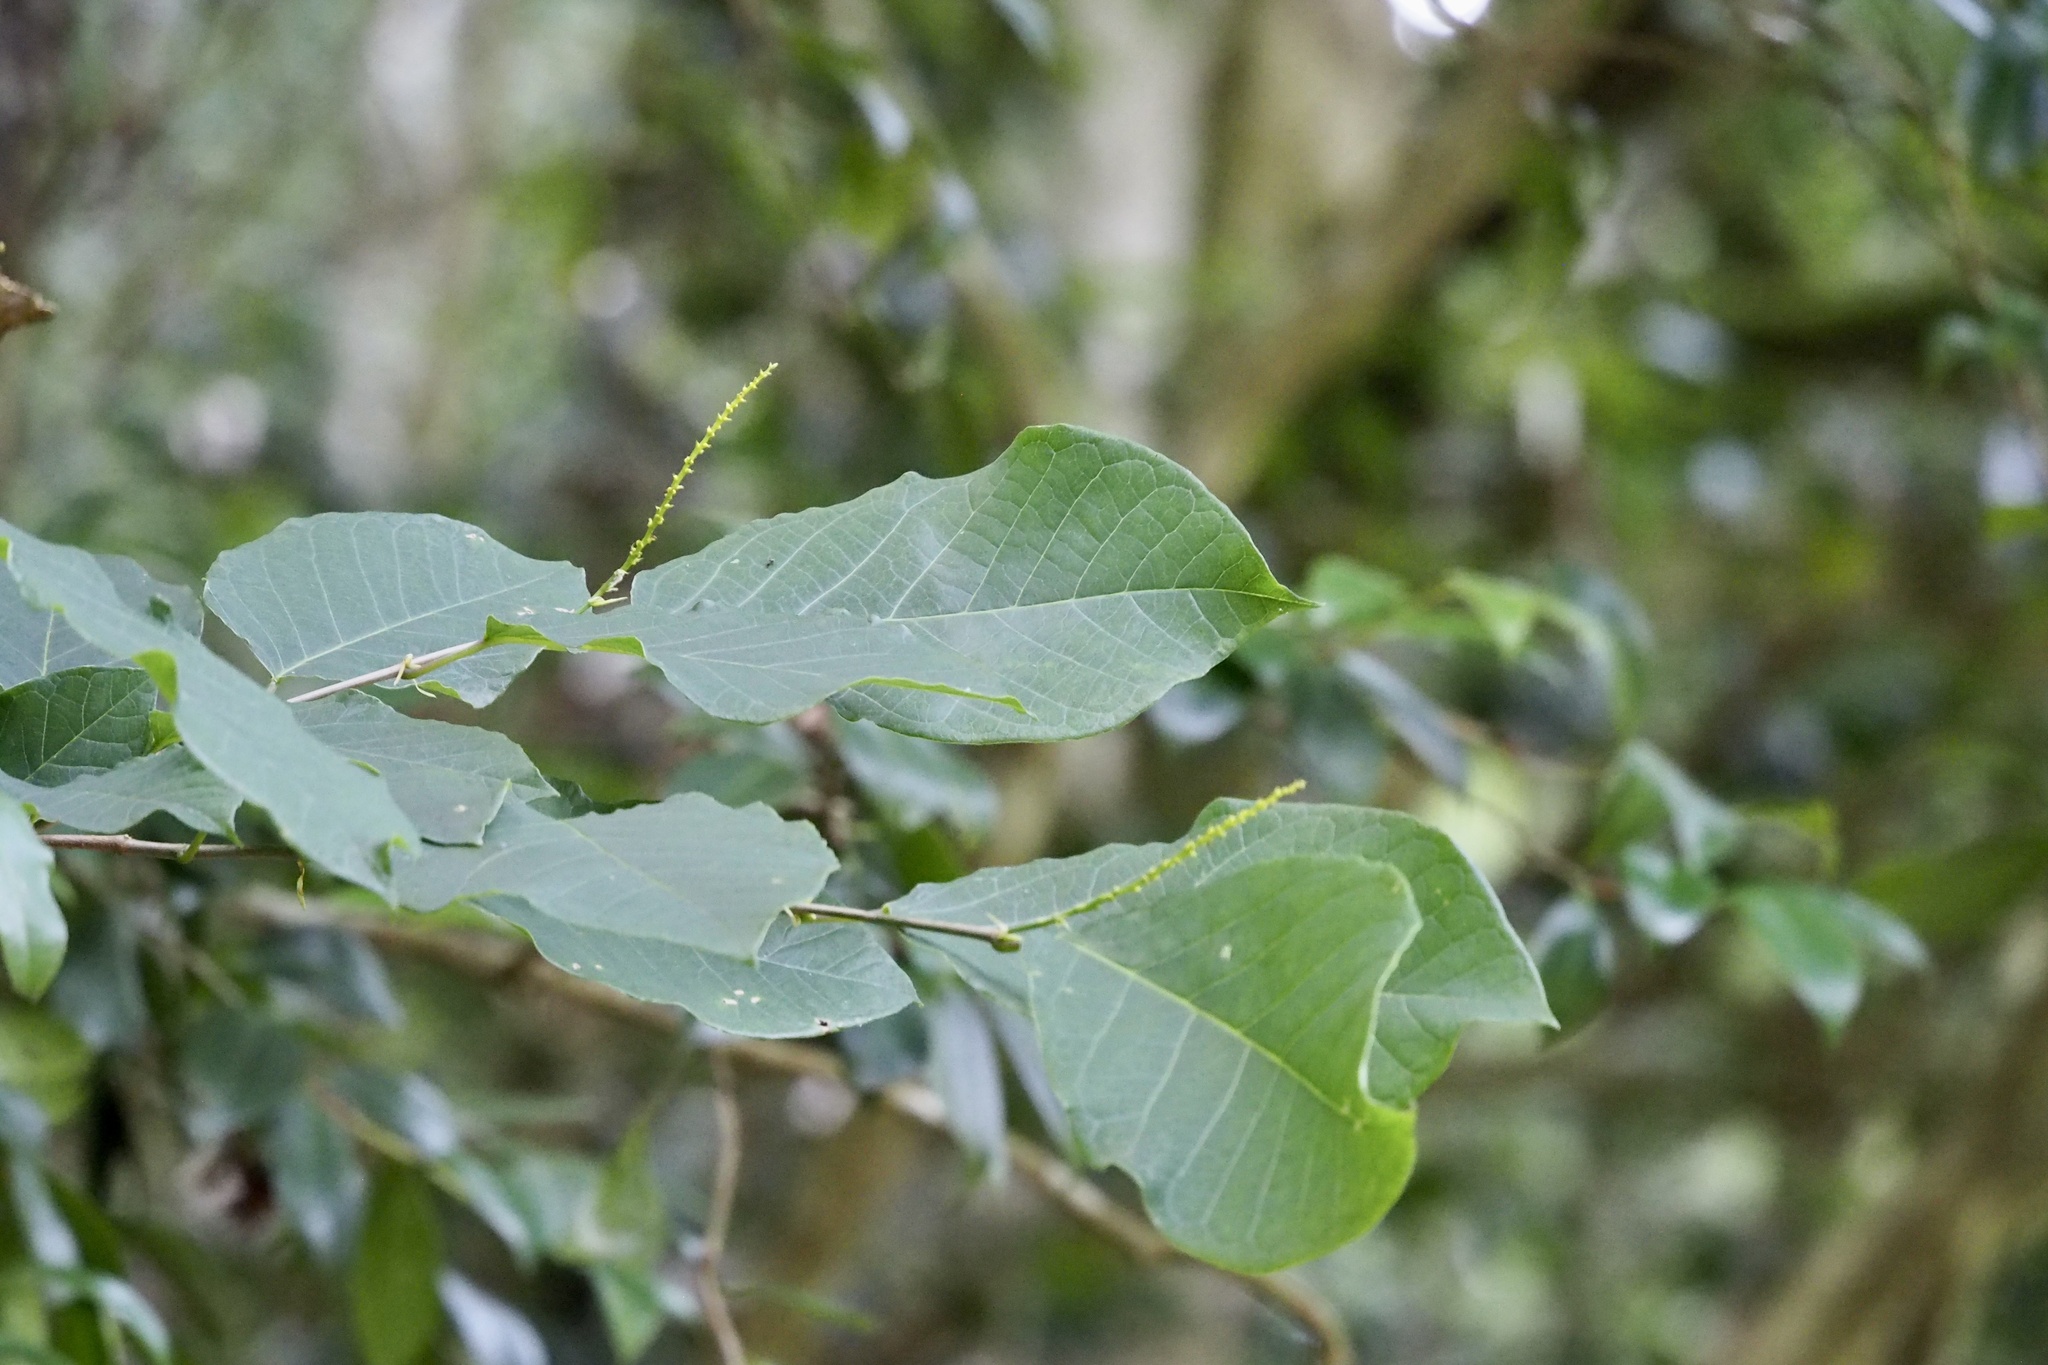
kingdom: Plantae
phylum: Tracheophyta
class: Magnoliopsida
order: Malpighiales
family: Euphorbiaceae
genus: Neoshirakia
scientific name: Neoshirakia japonica
